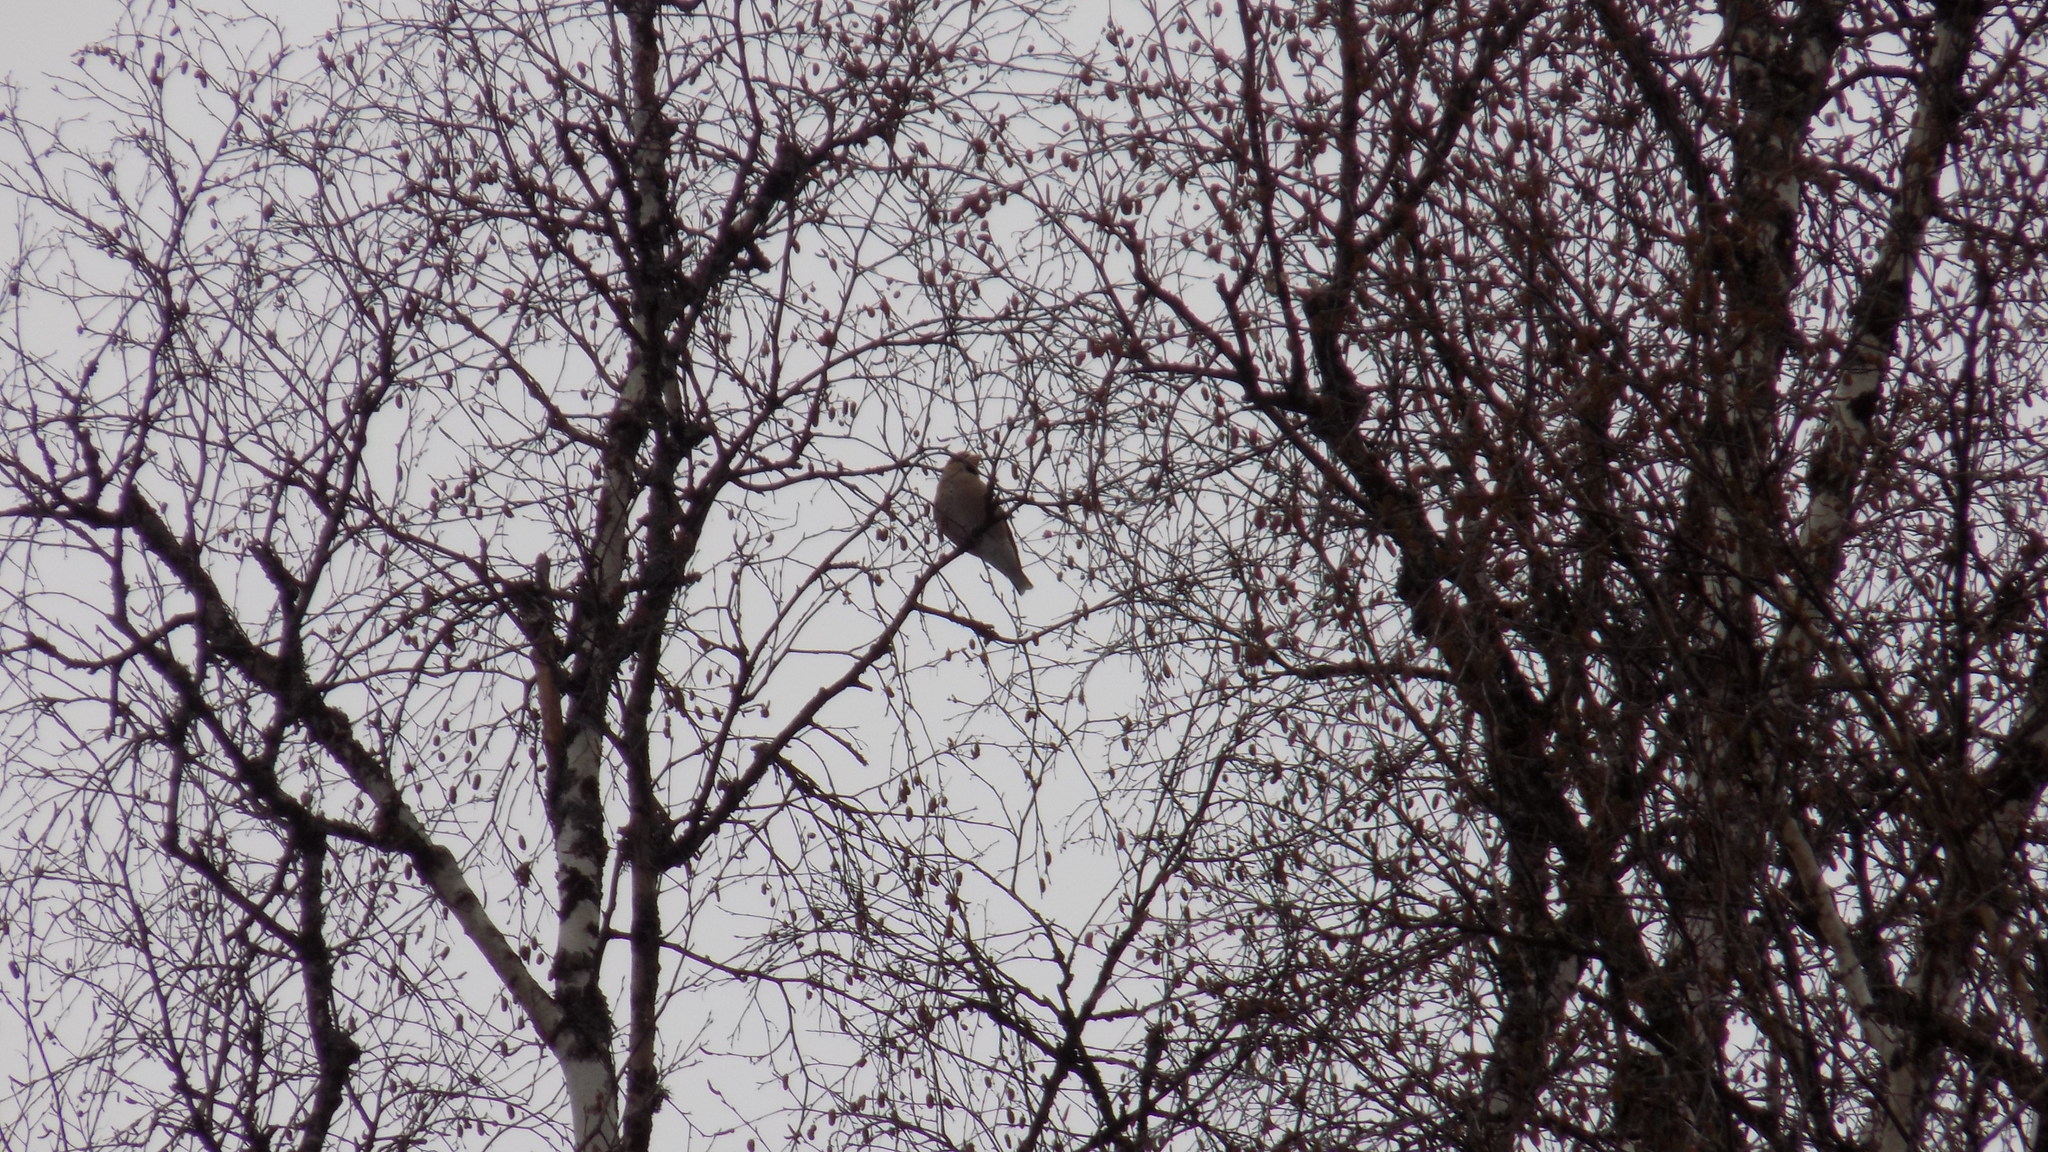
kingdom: Animalia
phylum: Chordata
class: Aves
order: Passeriformes
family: Fringillidae
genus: Coccothraustes
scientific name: Coccothraustes coccothraustes
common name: Hawfinch
